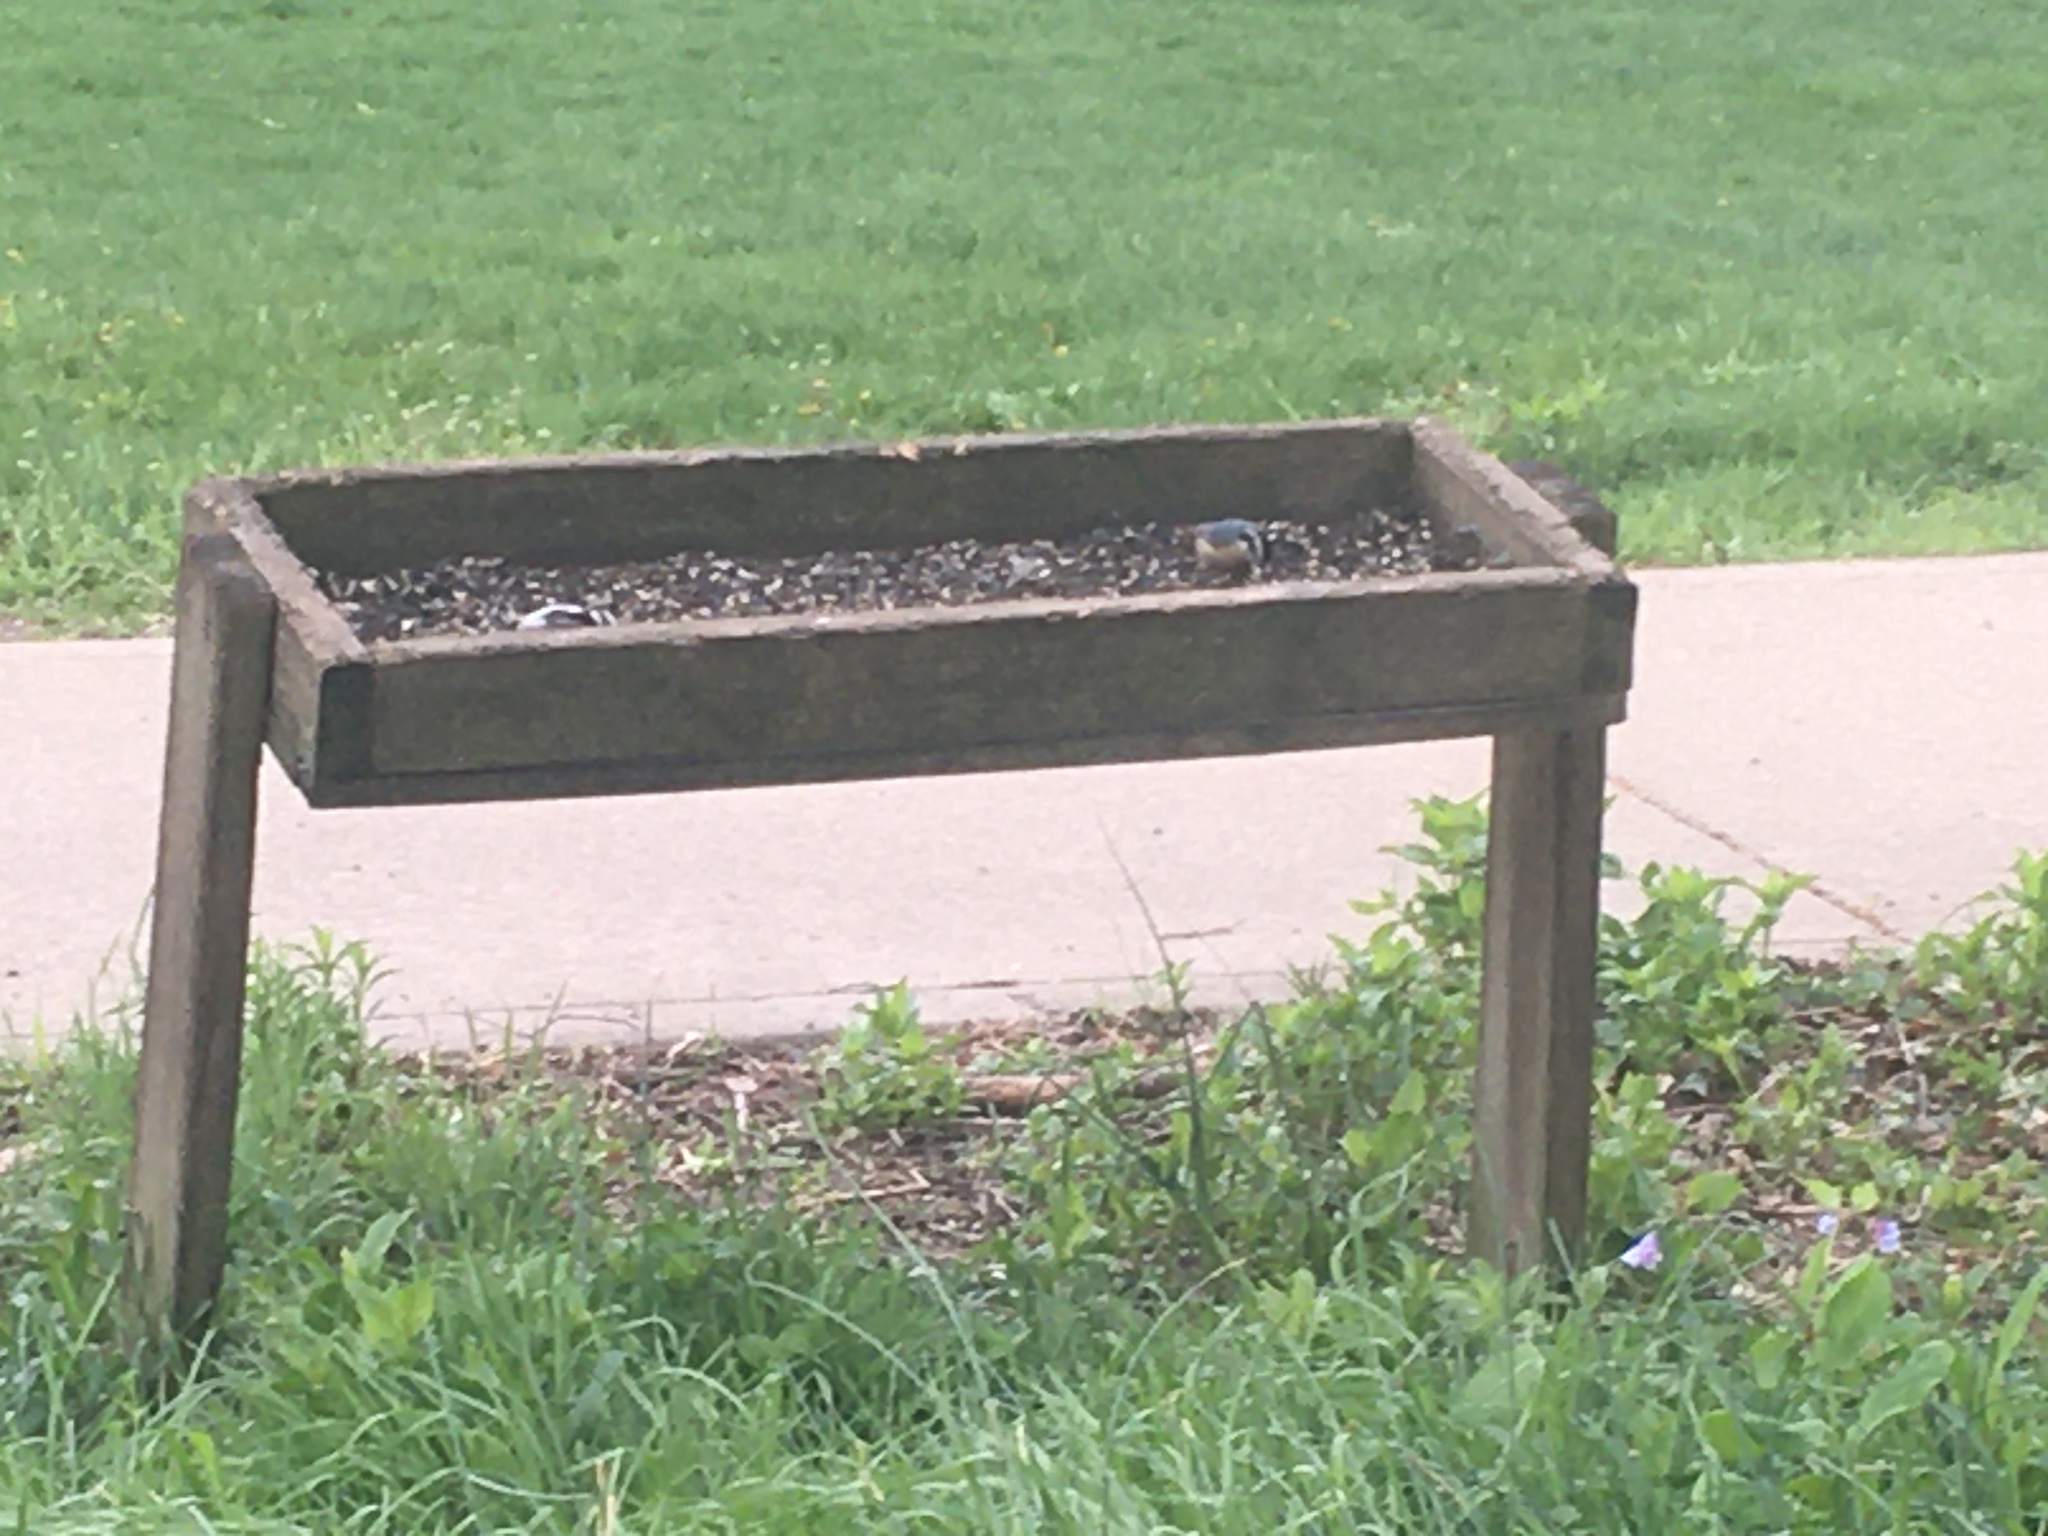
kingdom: Animalia
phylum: Chordata
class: Aves
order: Passeriformes
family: Sittidae
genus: Sitta
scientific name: Sitta canadensis
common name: Red-breasted nuthatch
